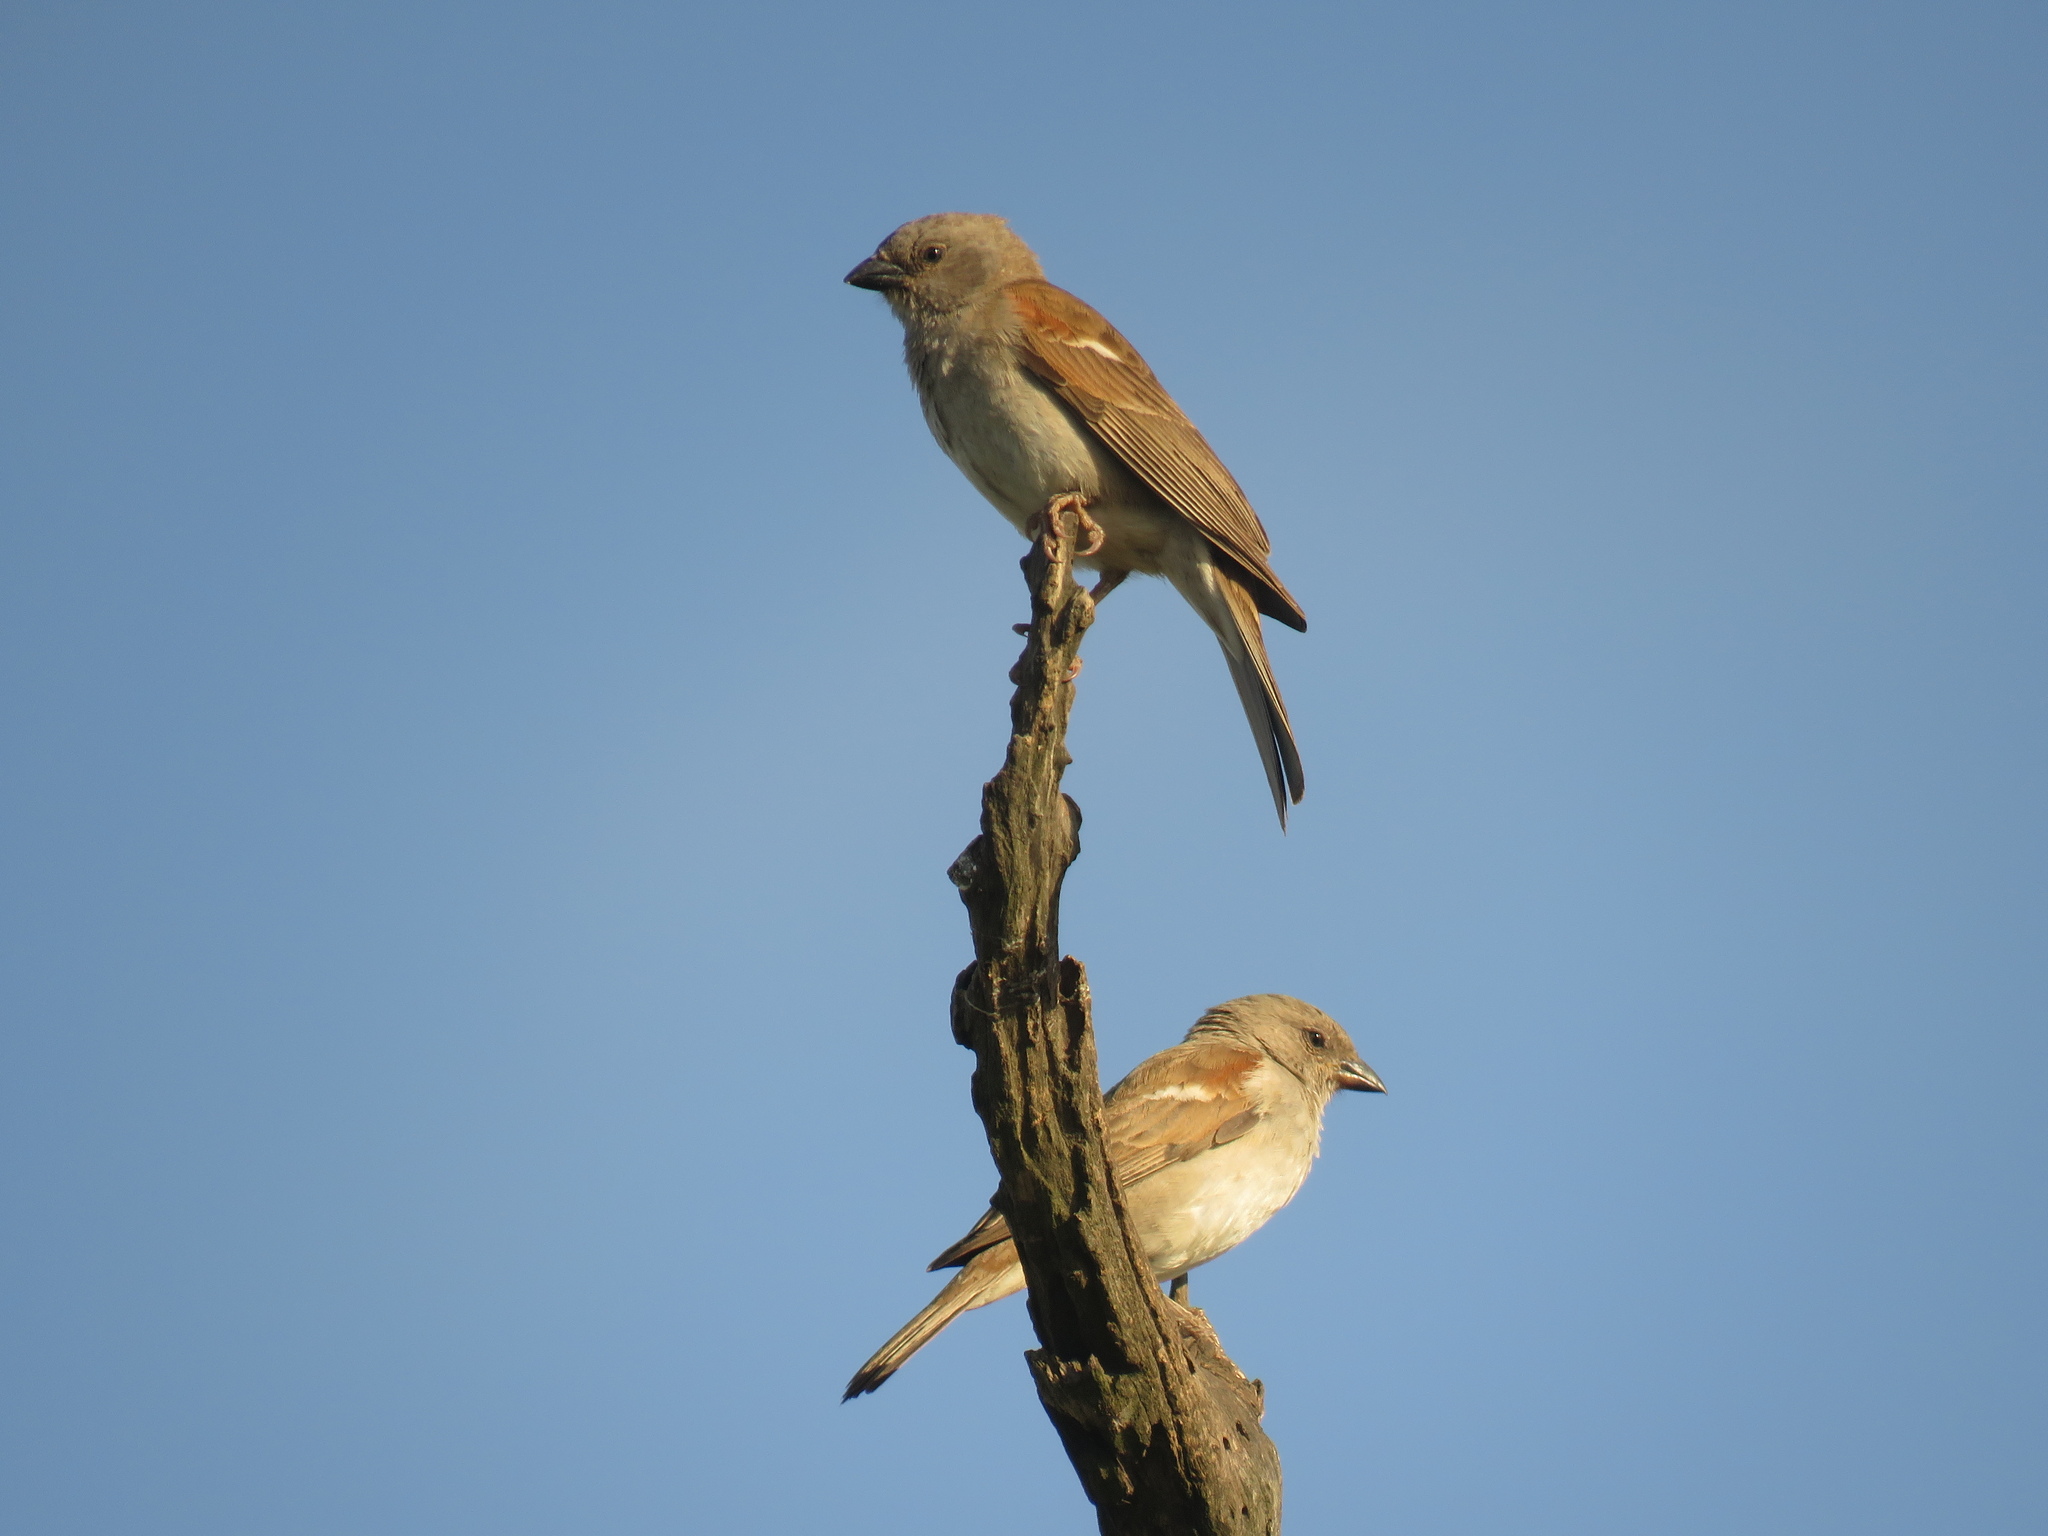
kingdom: Animalia
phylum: Chordata
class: Aves
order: Passeriformes
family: Passeridae
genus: Passer
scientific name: Passer diffusus
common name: Southern grey-headed sparrow
